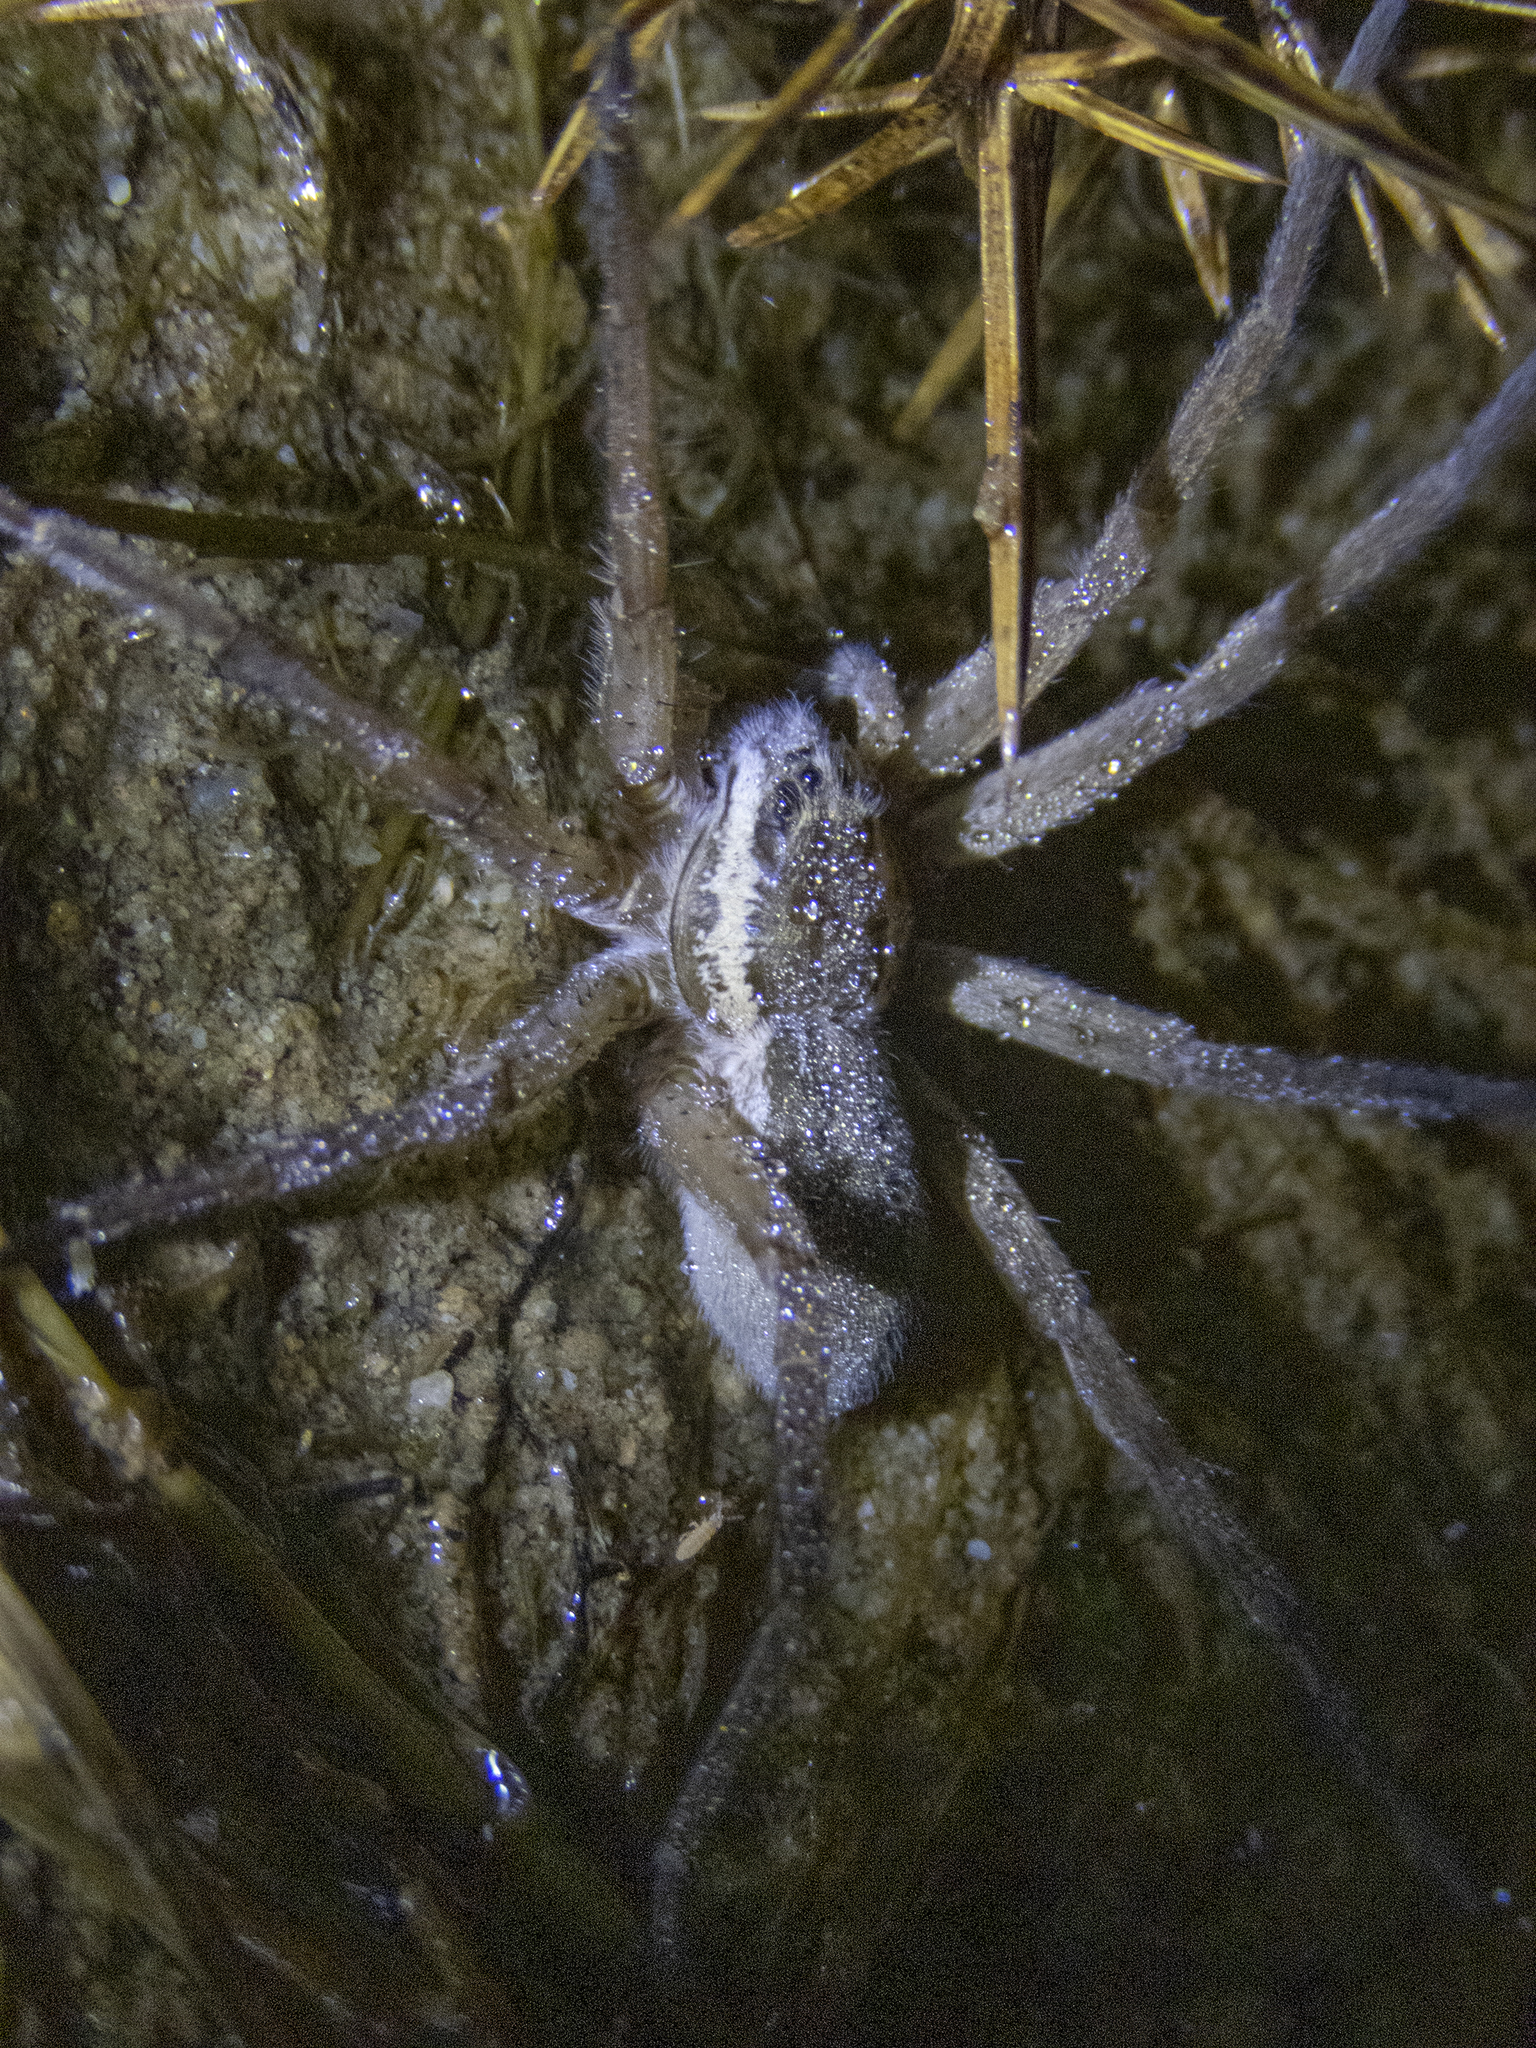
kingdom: Animalia
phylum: Arthropoda
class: Arachnida
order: Araneae
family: Pisauridae
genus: Dolomedes
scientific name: Dolomedes aquaticus
